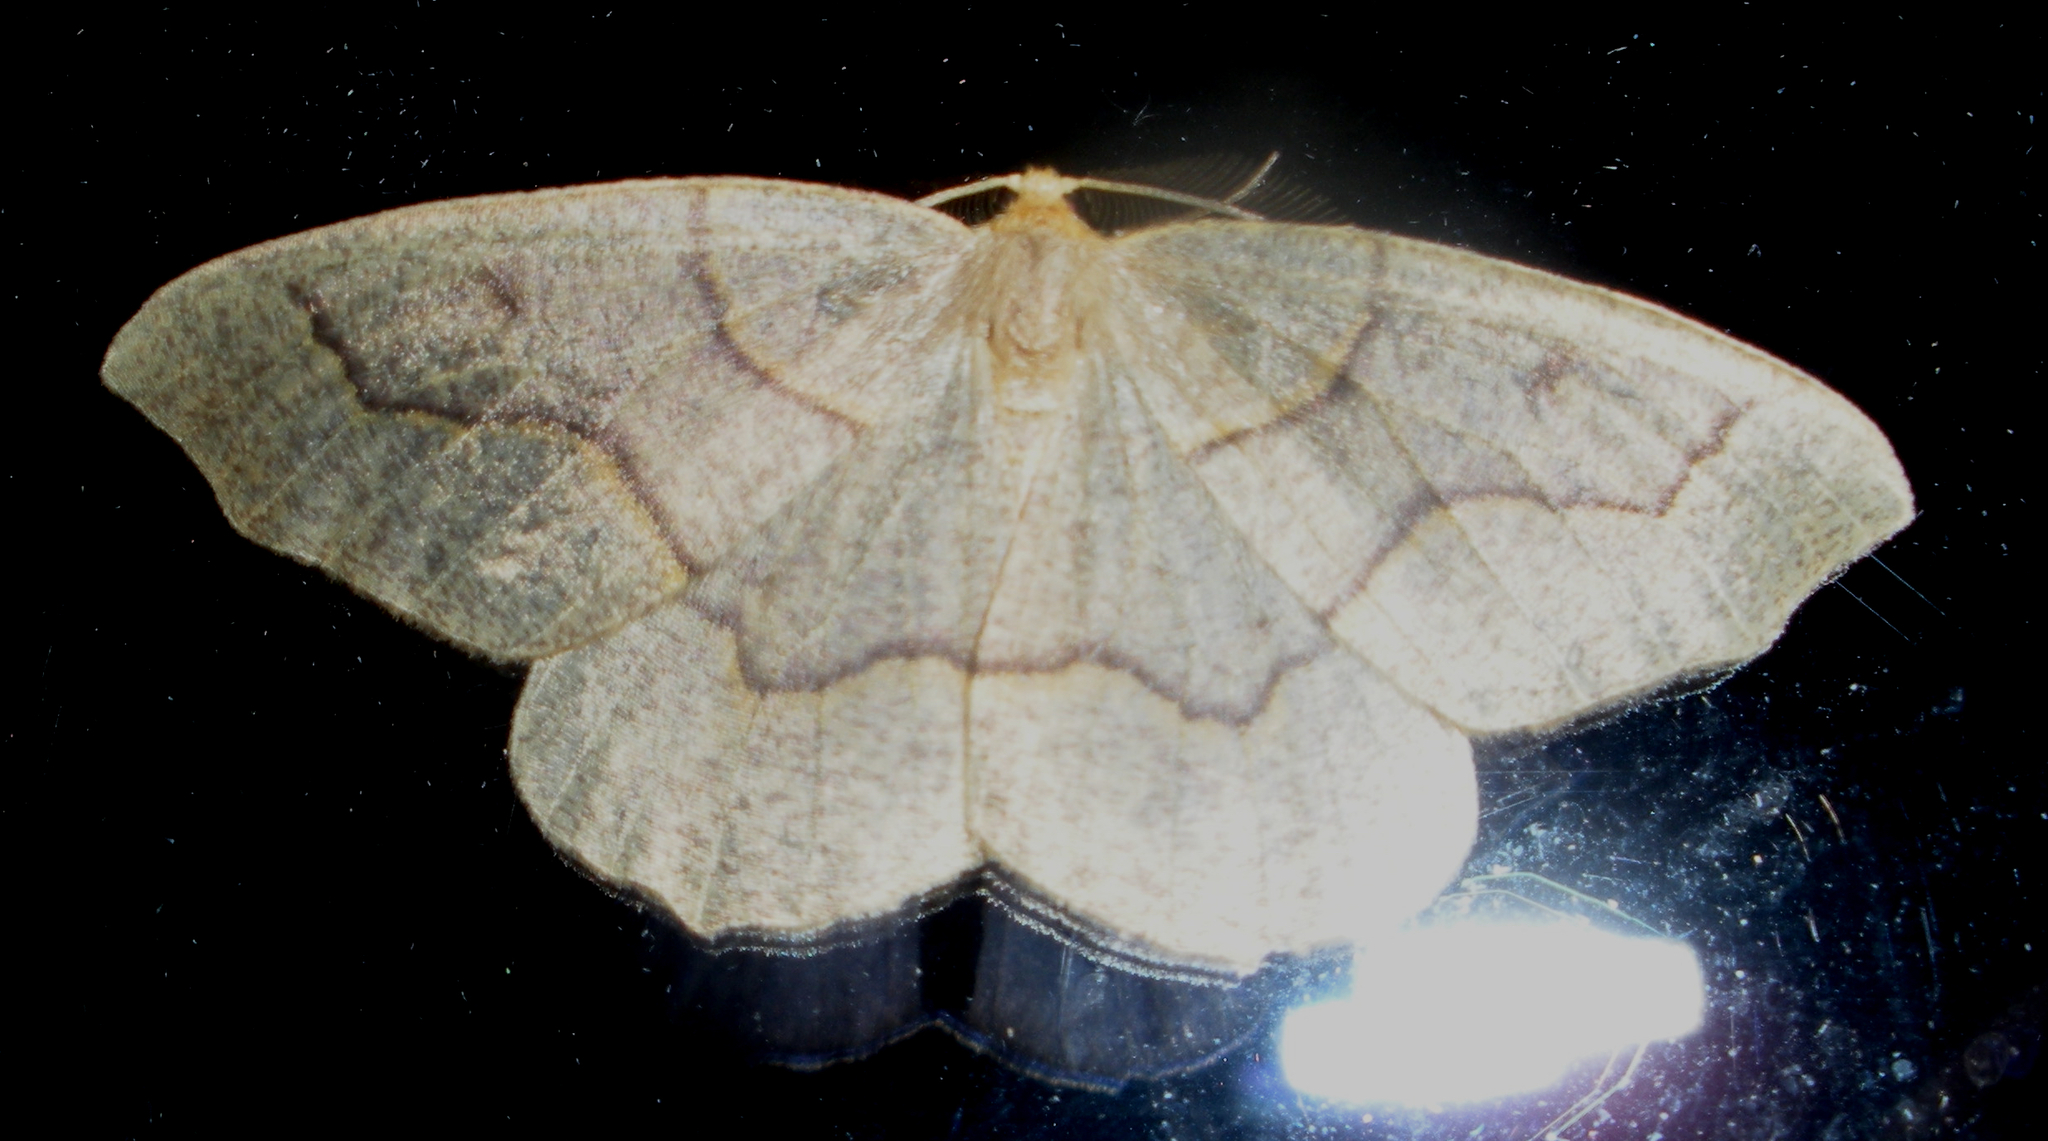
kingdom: Animalia
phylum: Arthropoda
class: Insecta
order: Lepidoptera
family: Geometridae
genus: Lambdina
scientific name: Lambdina fiscellaria
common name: Hemlock looper
